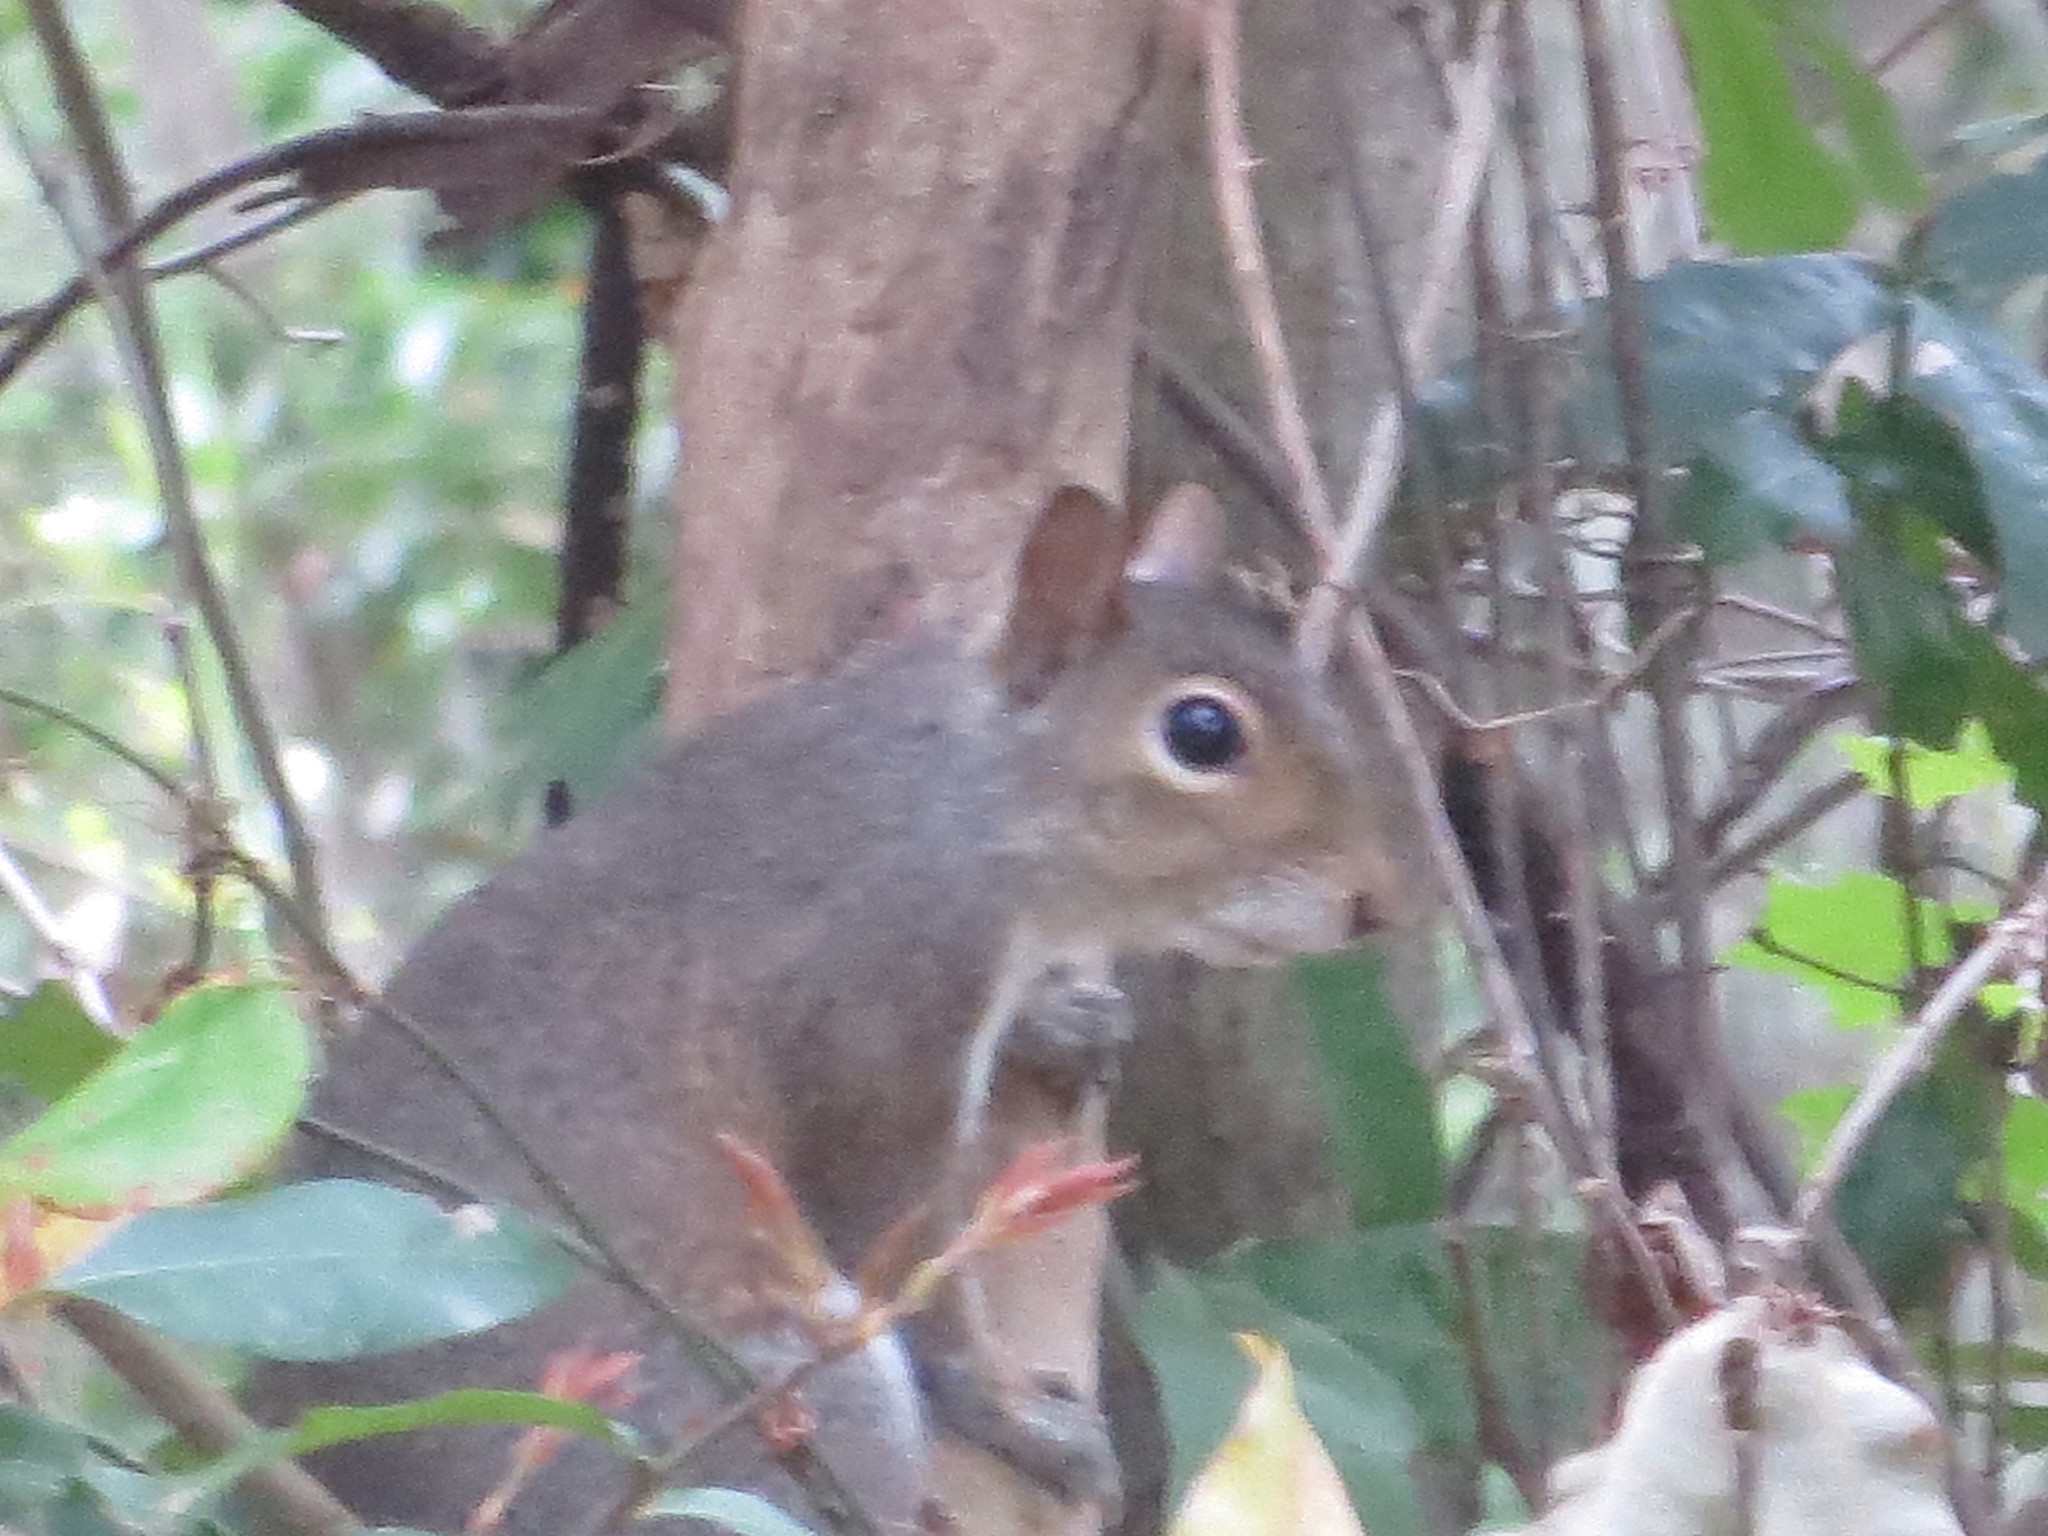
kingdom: Animalia
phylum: Chordata
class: Mammalia
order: Rodentia
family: Sciuridae
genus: Sciurus
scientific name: Sciurus carolinensis
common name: Eastern gray squirrel
